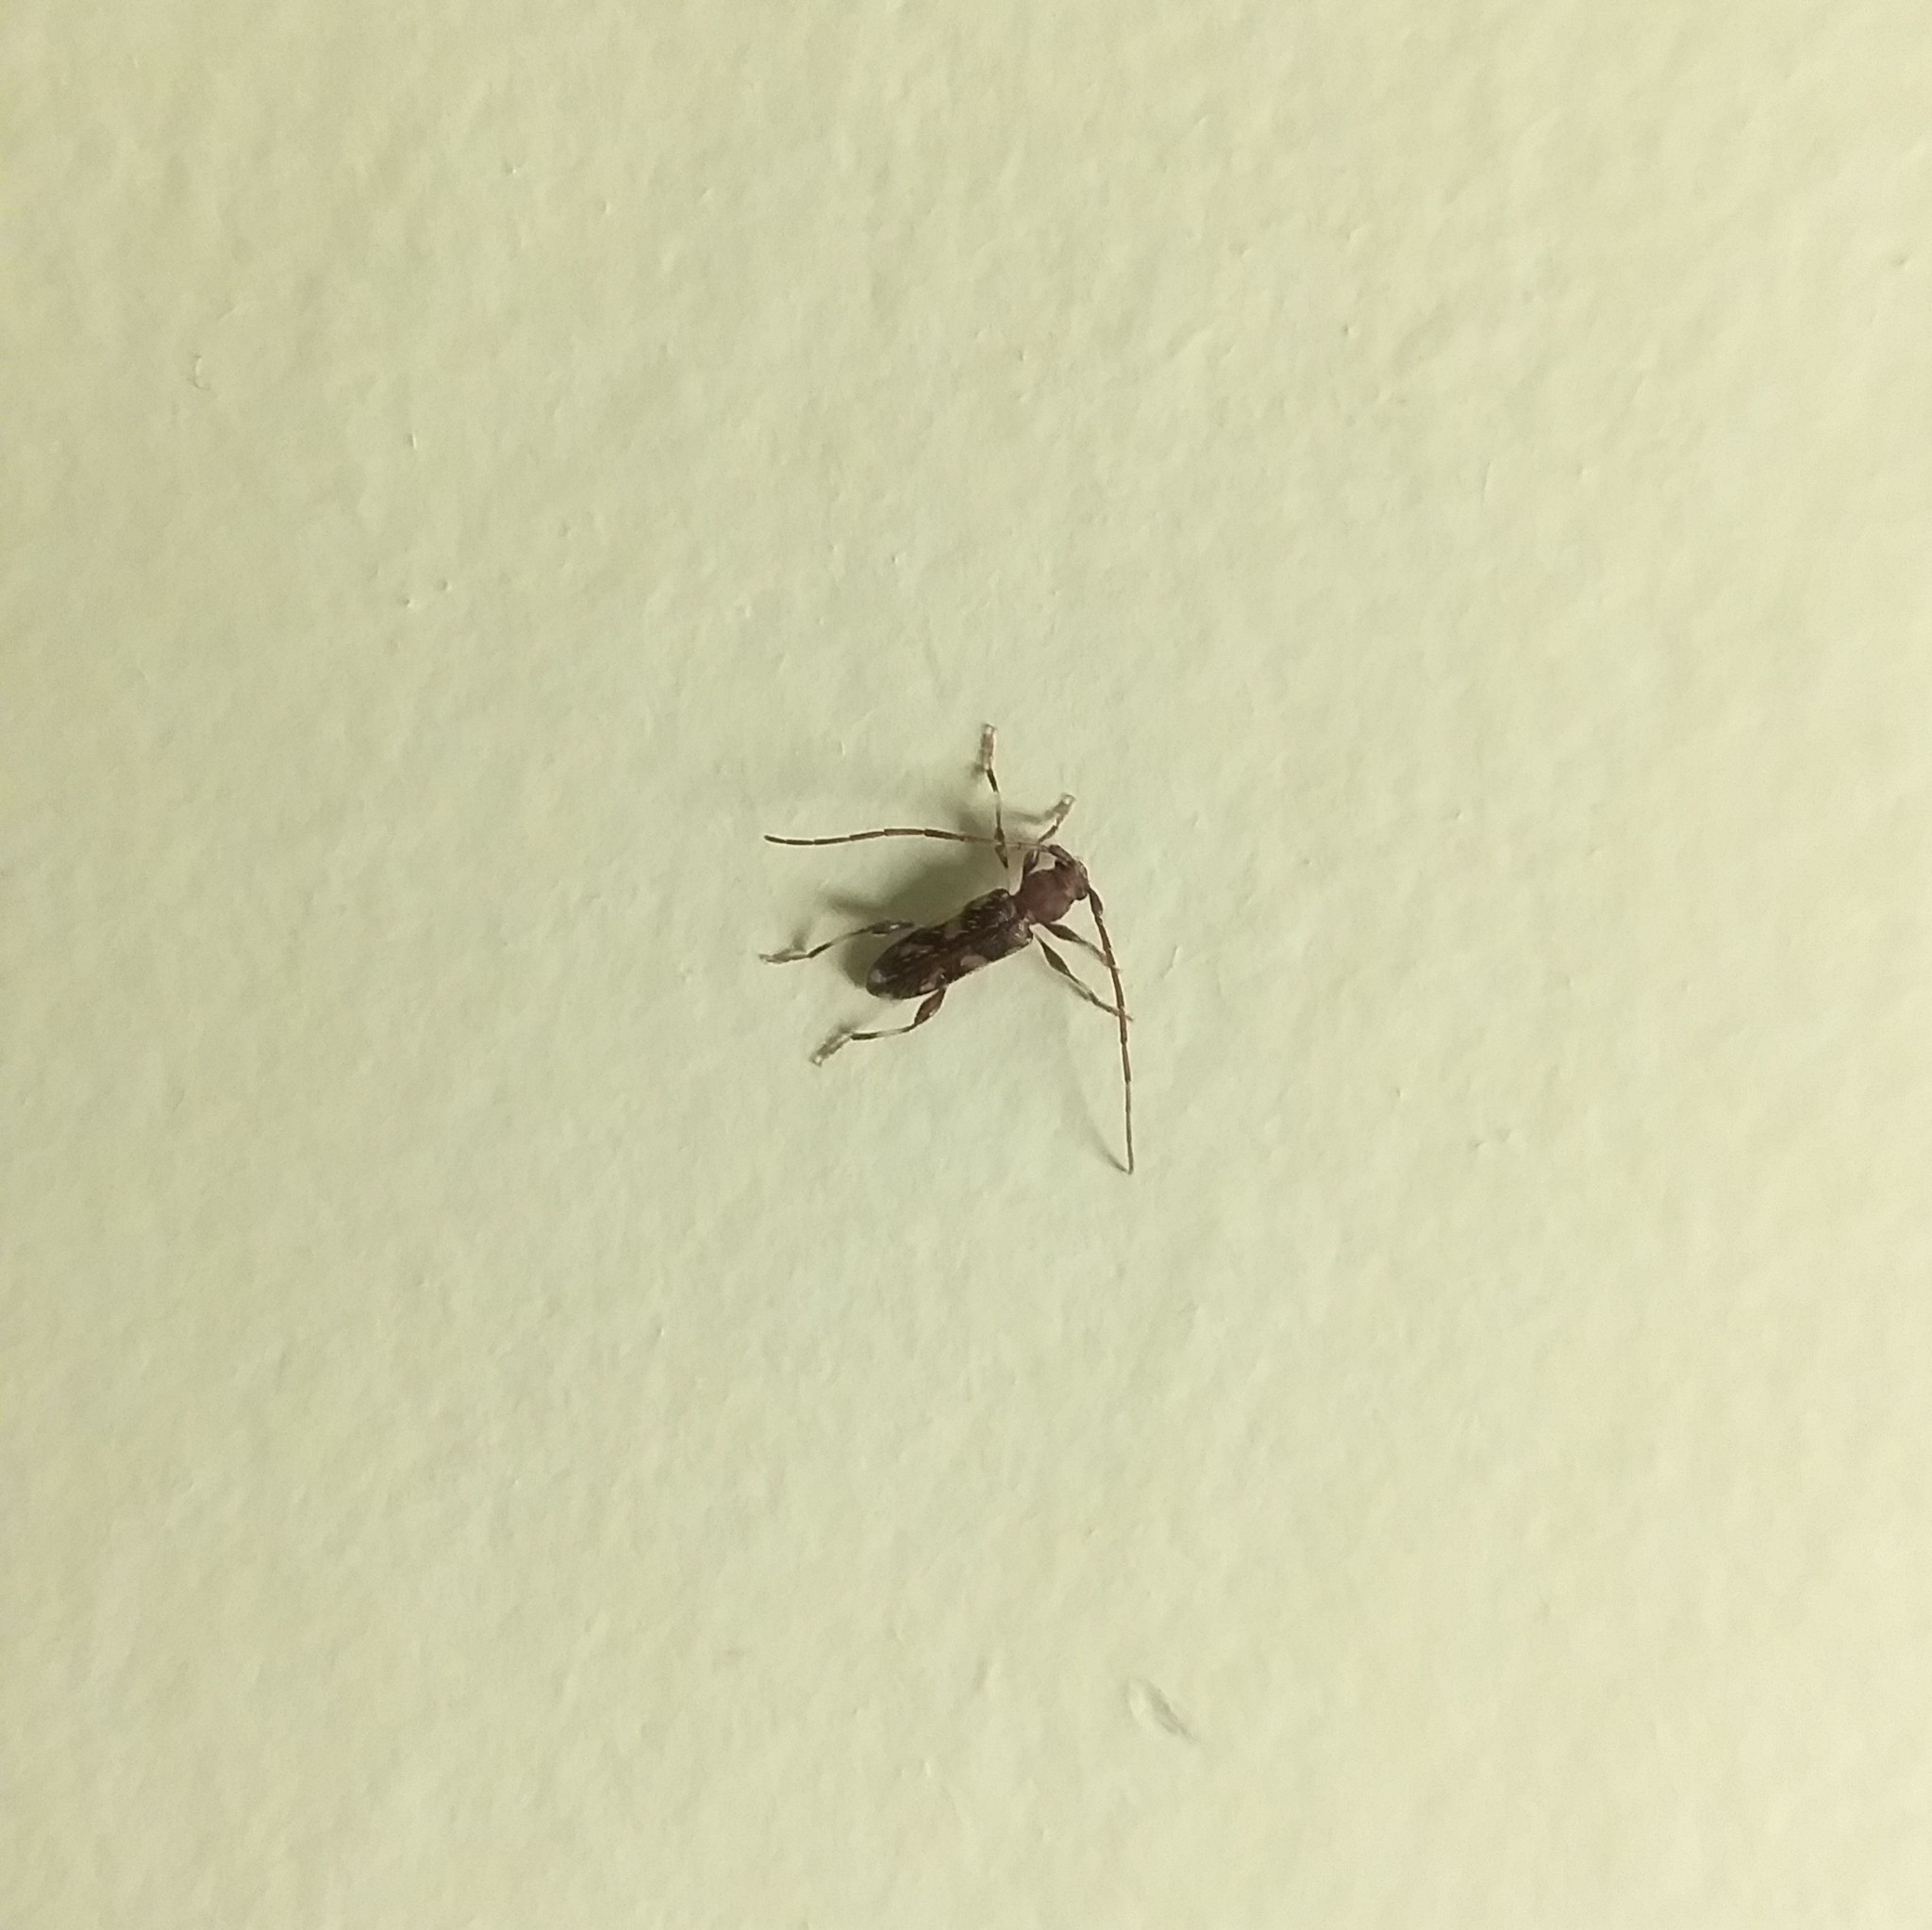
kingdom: Animalia
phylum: Arthropoda
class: Insecta
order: Coleoptera
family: Cerambycidae
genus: Bethelium
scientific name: Bethelium signiferum
